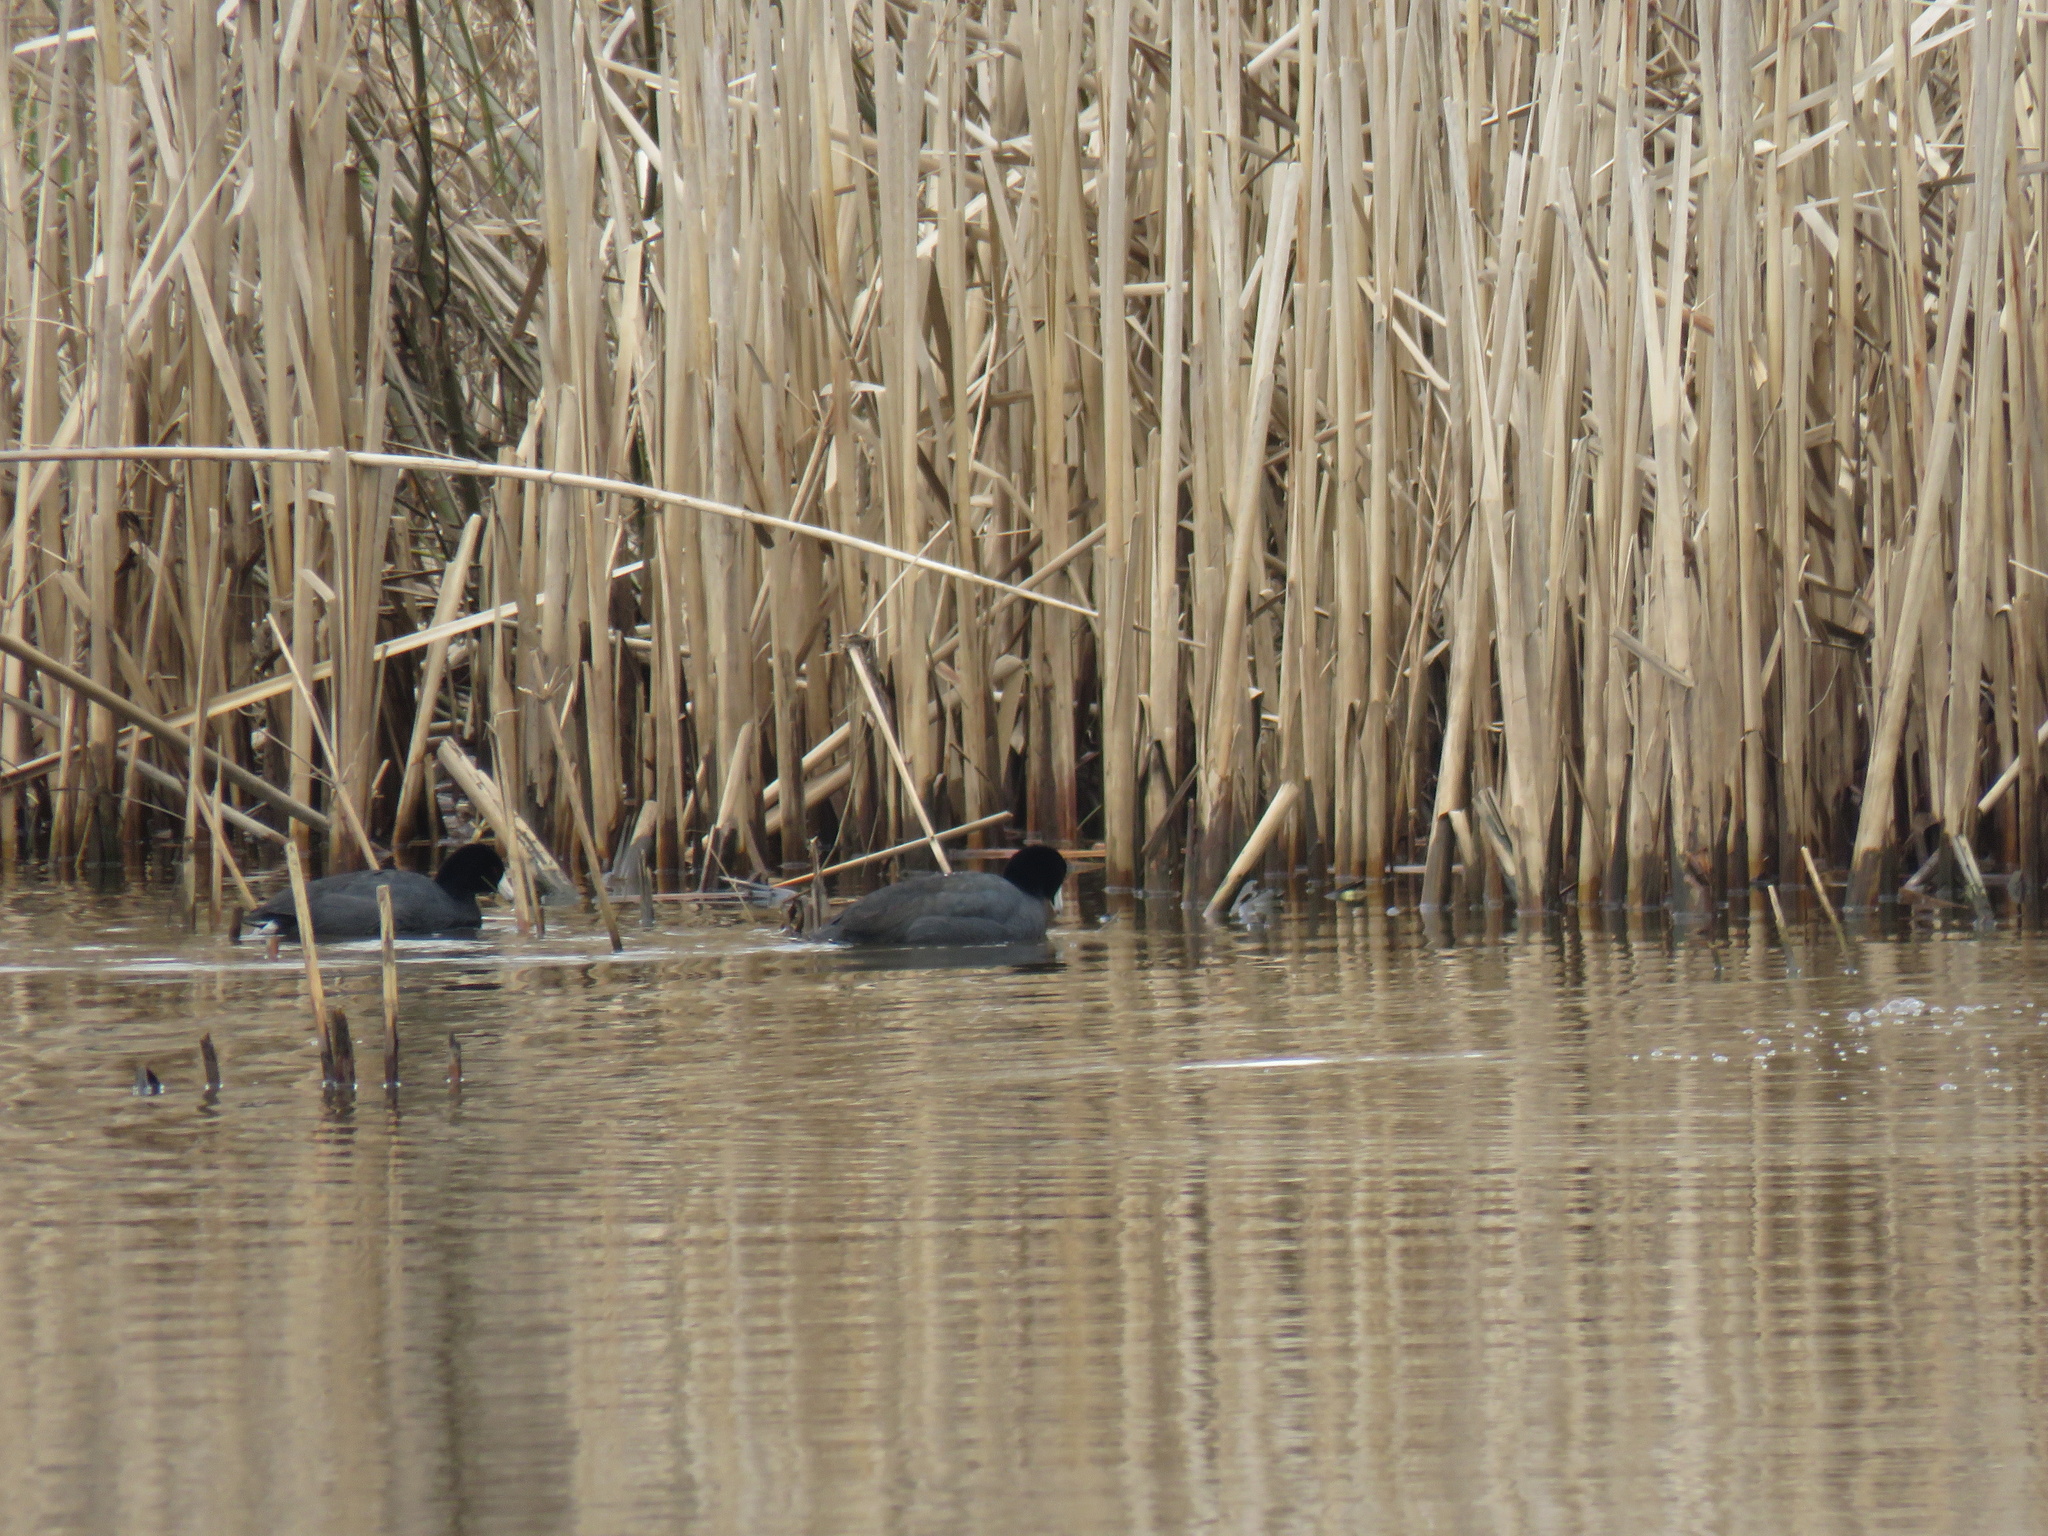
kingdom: Animalia
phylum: Chordata
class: Aves
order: Gruiformes
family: Rallidae
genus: Fulica
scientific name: Fulica americana
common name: American coot
